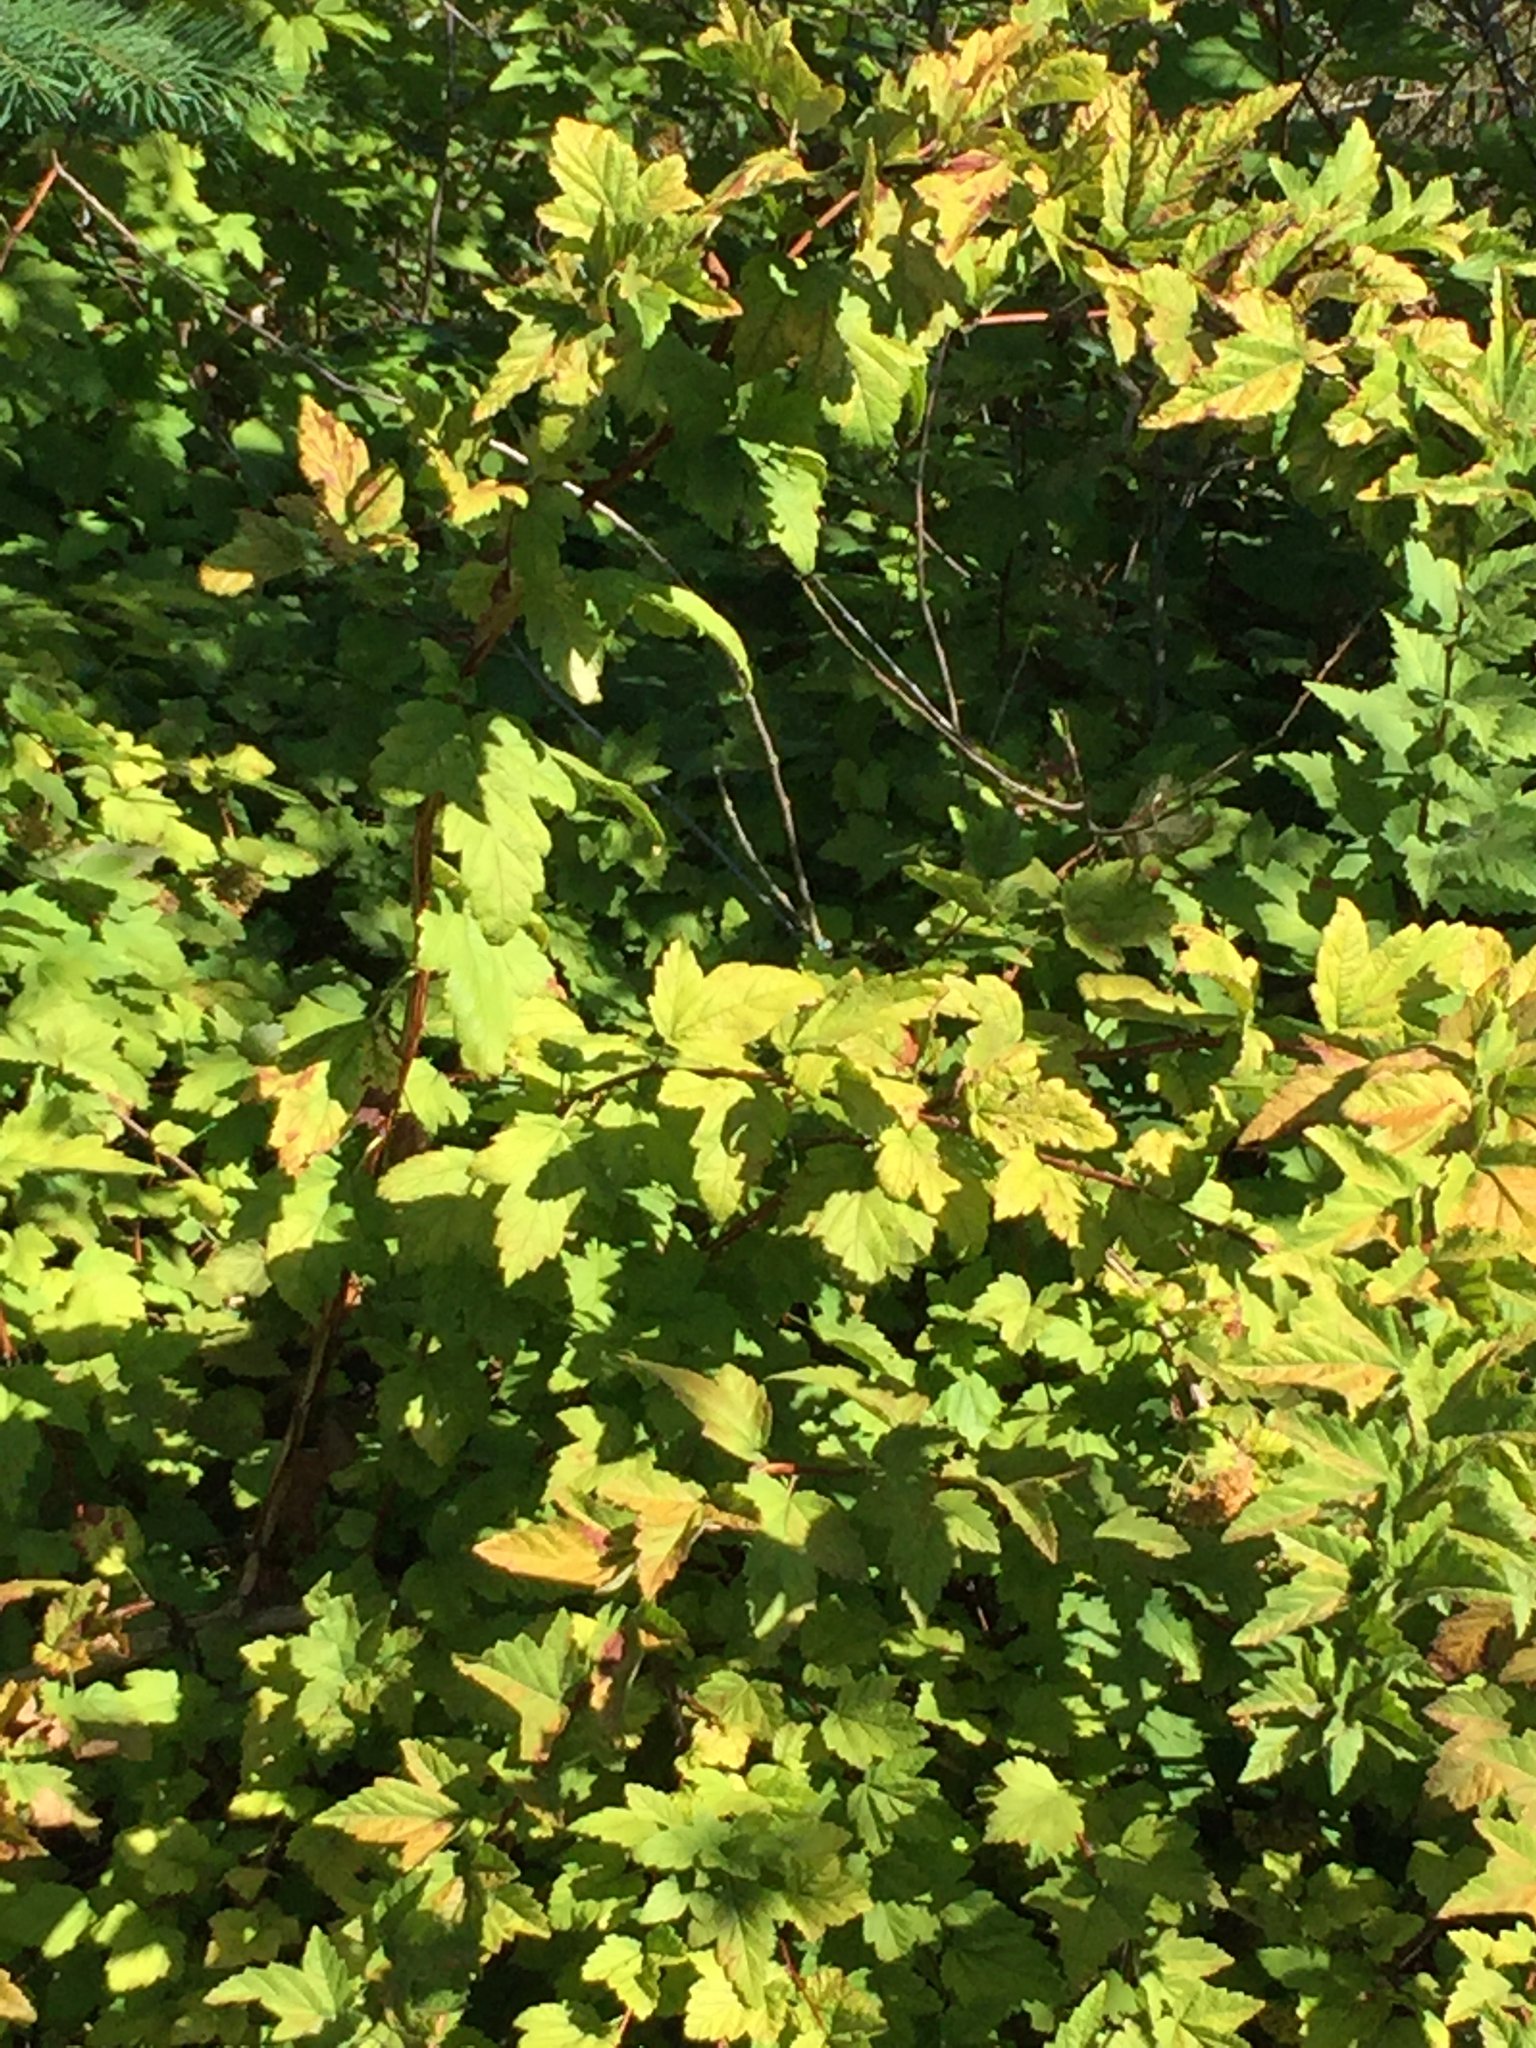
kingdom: Plantae
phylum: Tracheophyta
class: Magnoliopsida
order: Rosales
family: Rosaceae
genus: Physocarpus
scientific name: Physocarpus capitatus
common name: Pacific ninebark
